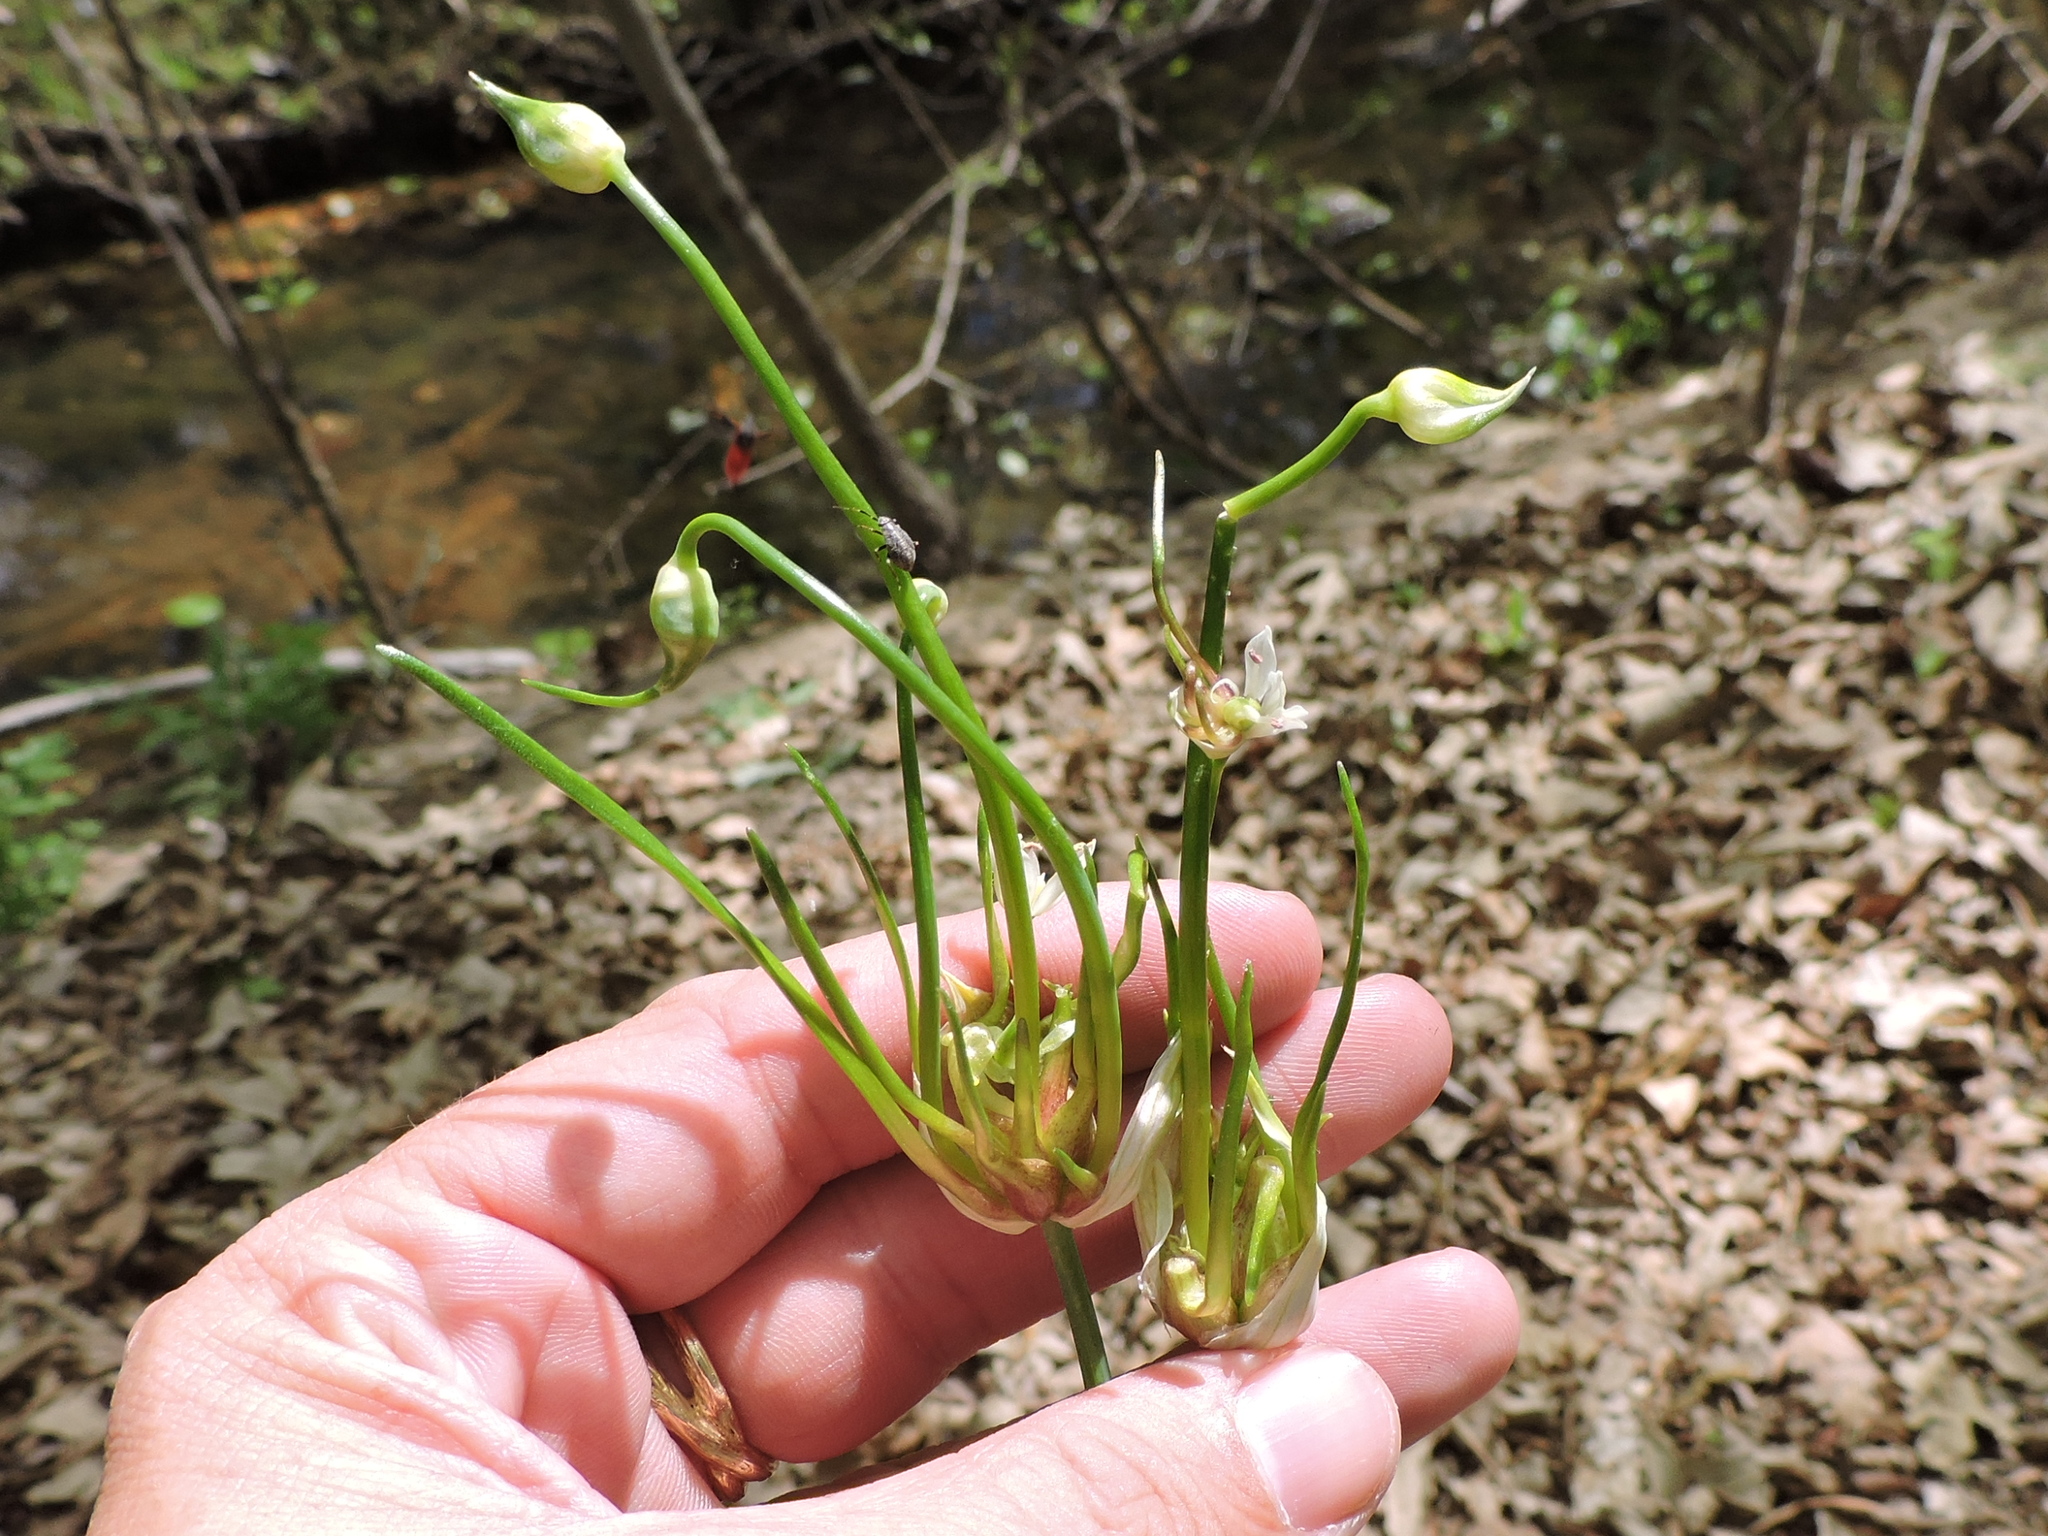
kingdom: Plantae
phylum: Tracheophyta
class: Liliopsida
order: Asparagales
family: Amaryllidaceae
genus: Allium
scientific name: Allium canadense
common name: Meadow garlic
